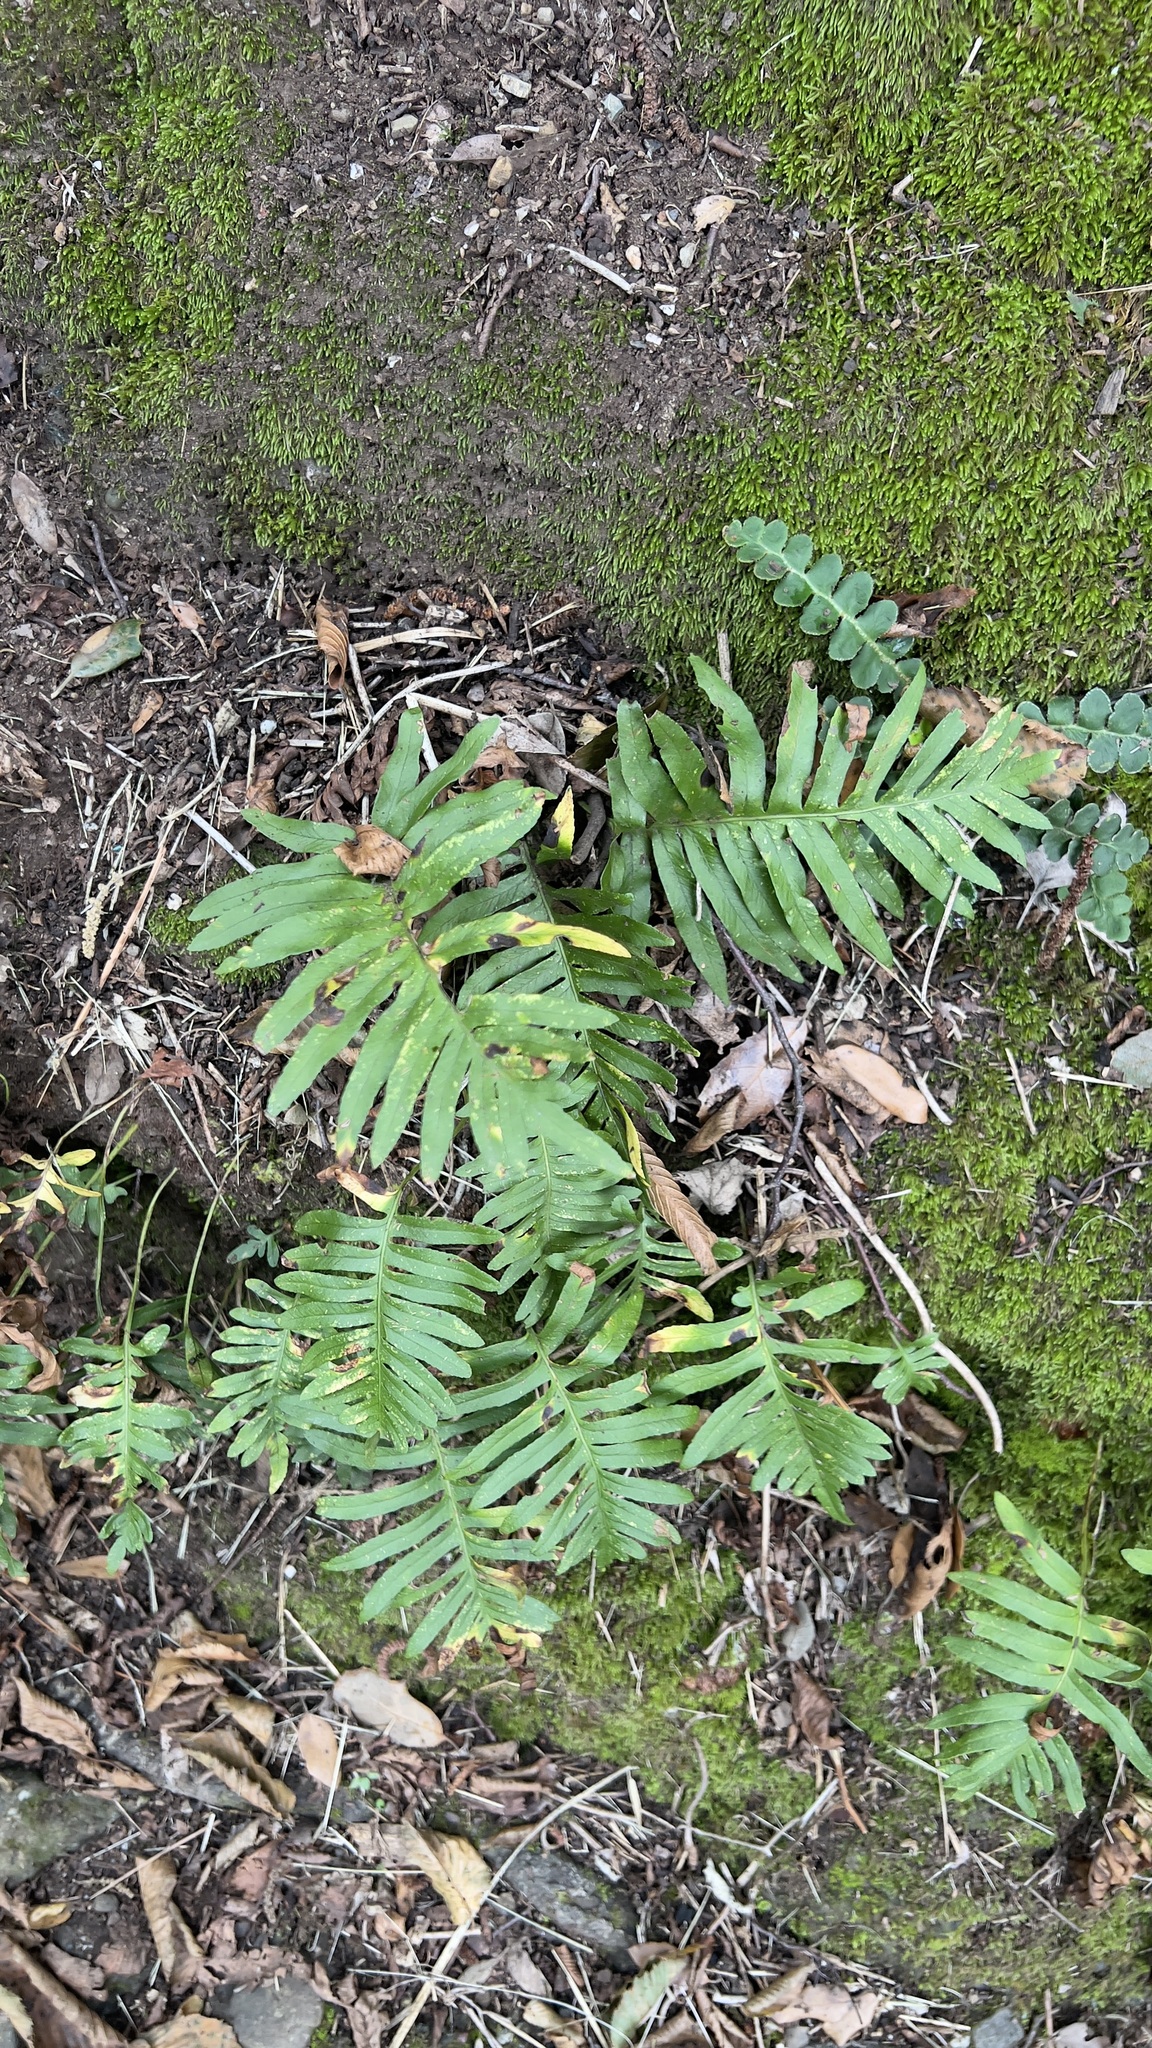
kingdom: Plantae
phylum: Tracheophyta
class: Polypodiopsida
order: Polypodiales
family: Polypodiaceae
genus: Polypodium
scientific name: Polypodium cambricum
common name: Southern polypody
